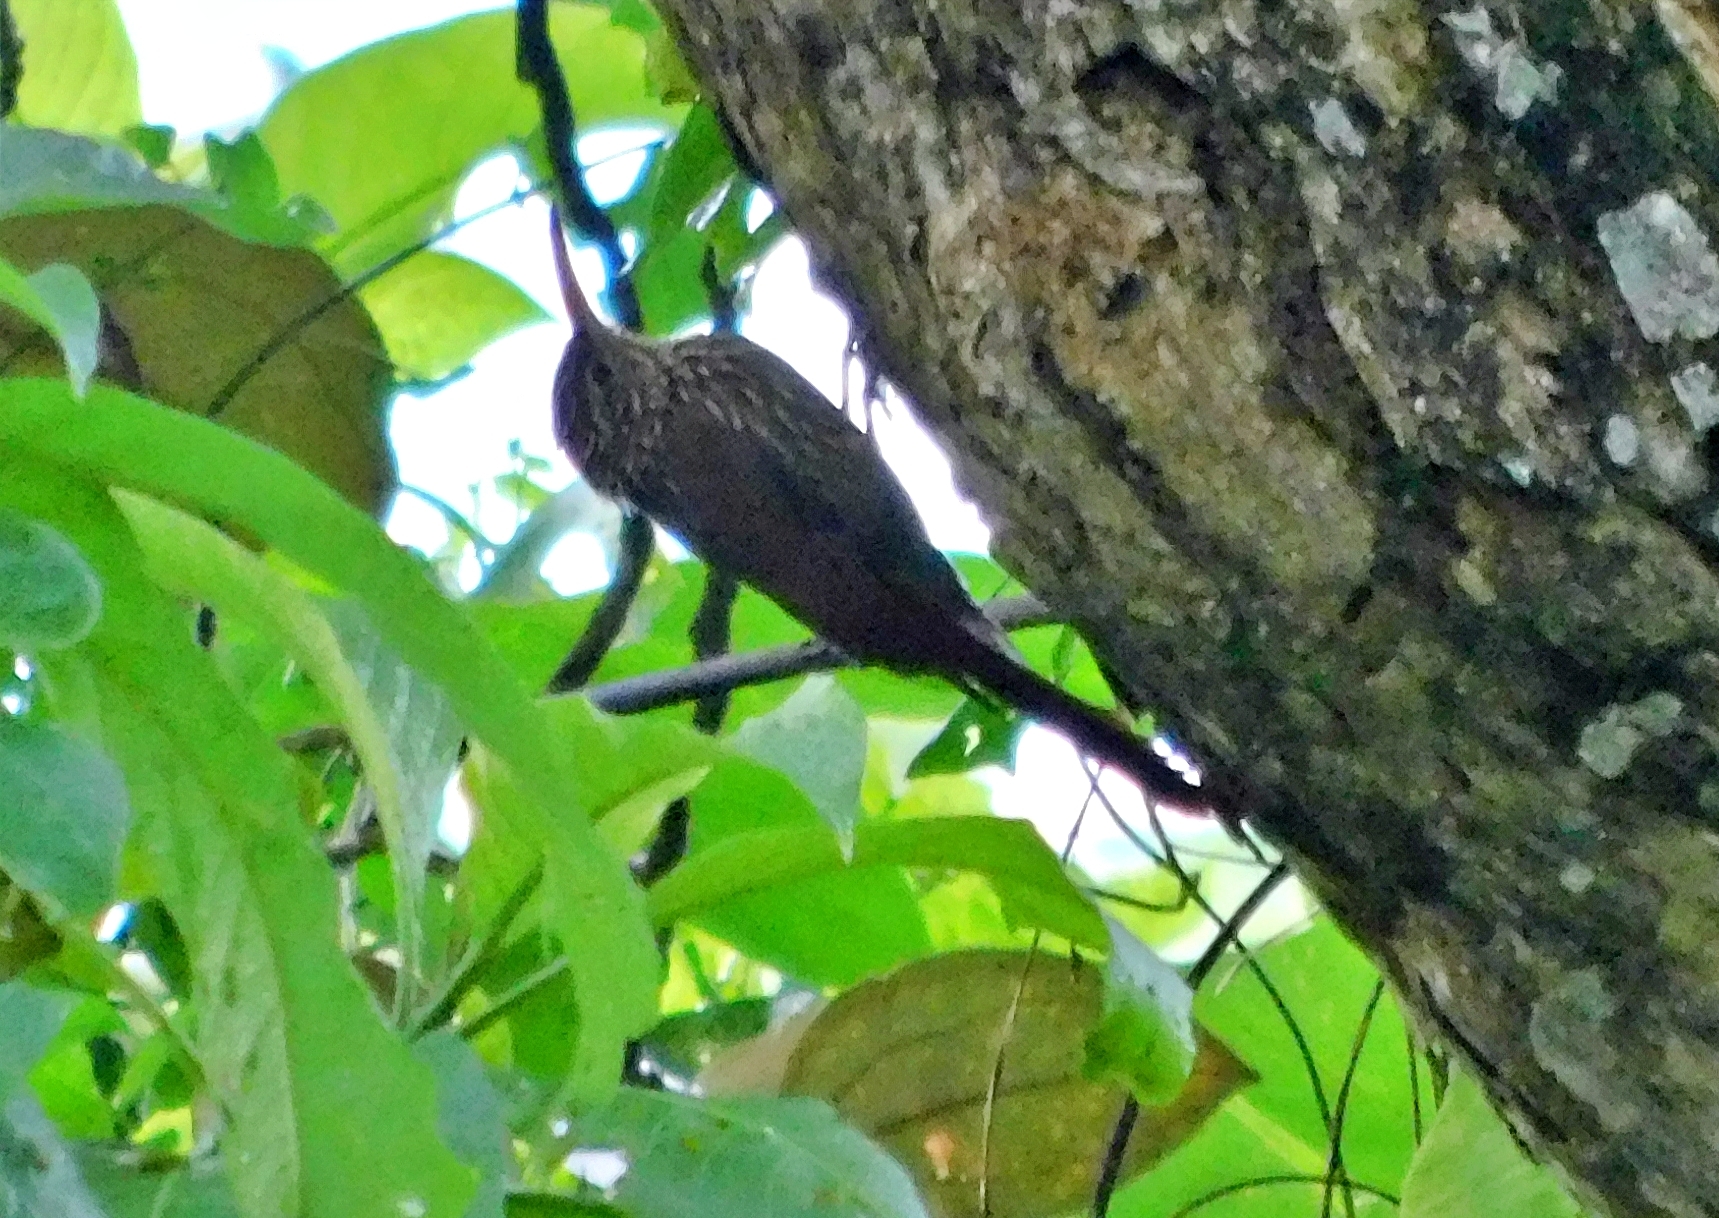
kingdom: Animalia
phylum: Chordata
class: Aves
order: Passeriformes
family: Furnariidae
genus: Lepidocolaptes
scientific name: Lepidocolaptes souleyetii
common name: Streak-headed woodcreeper
